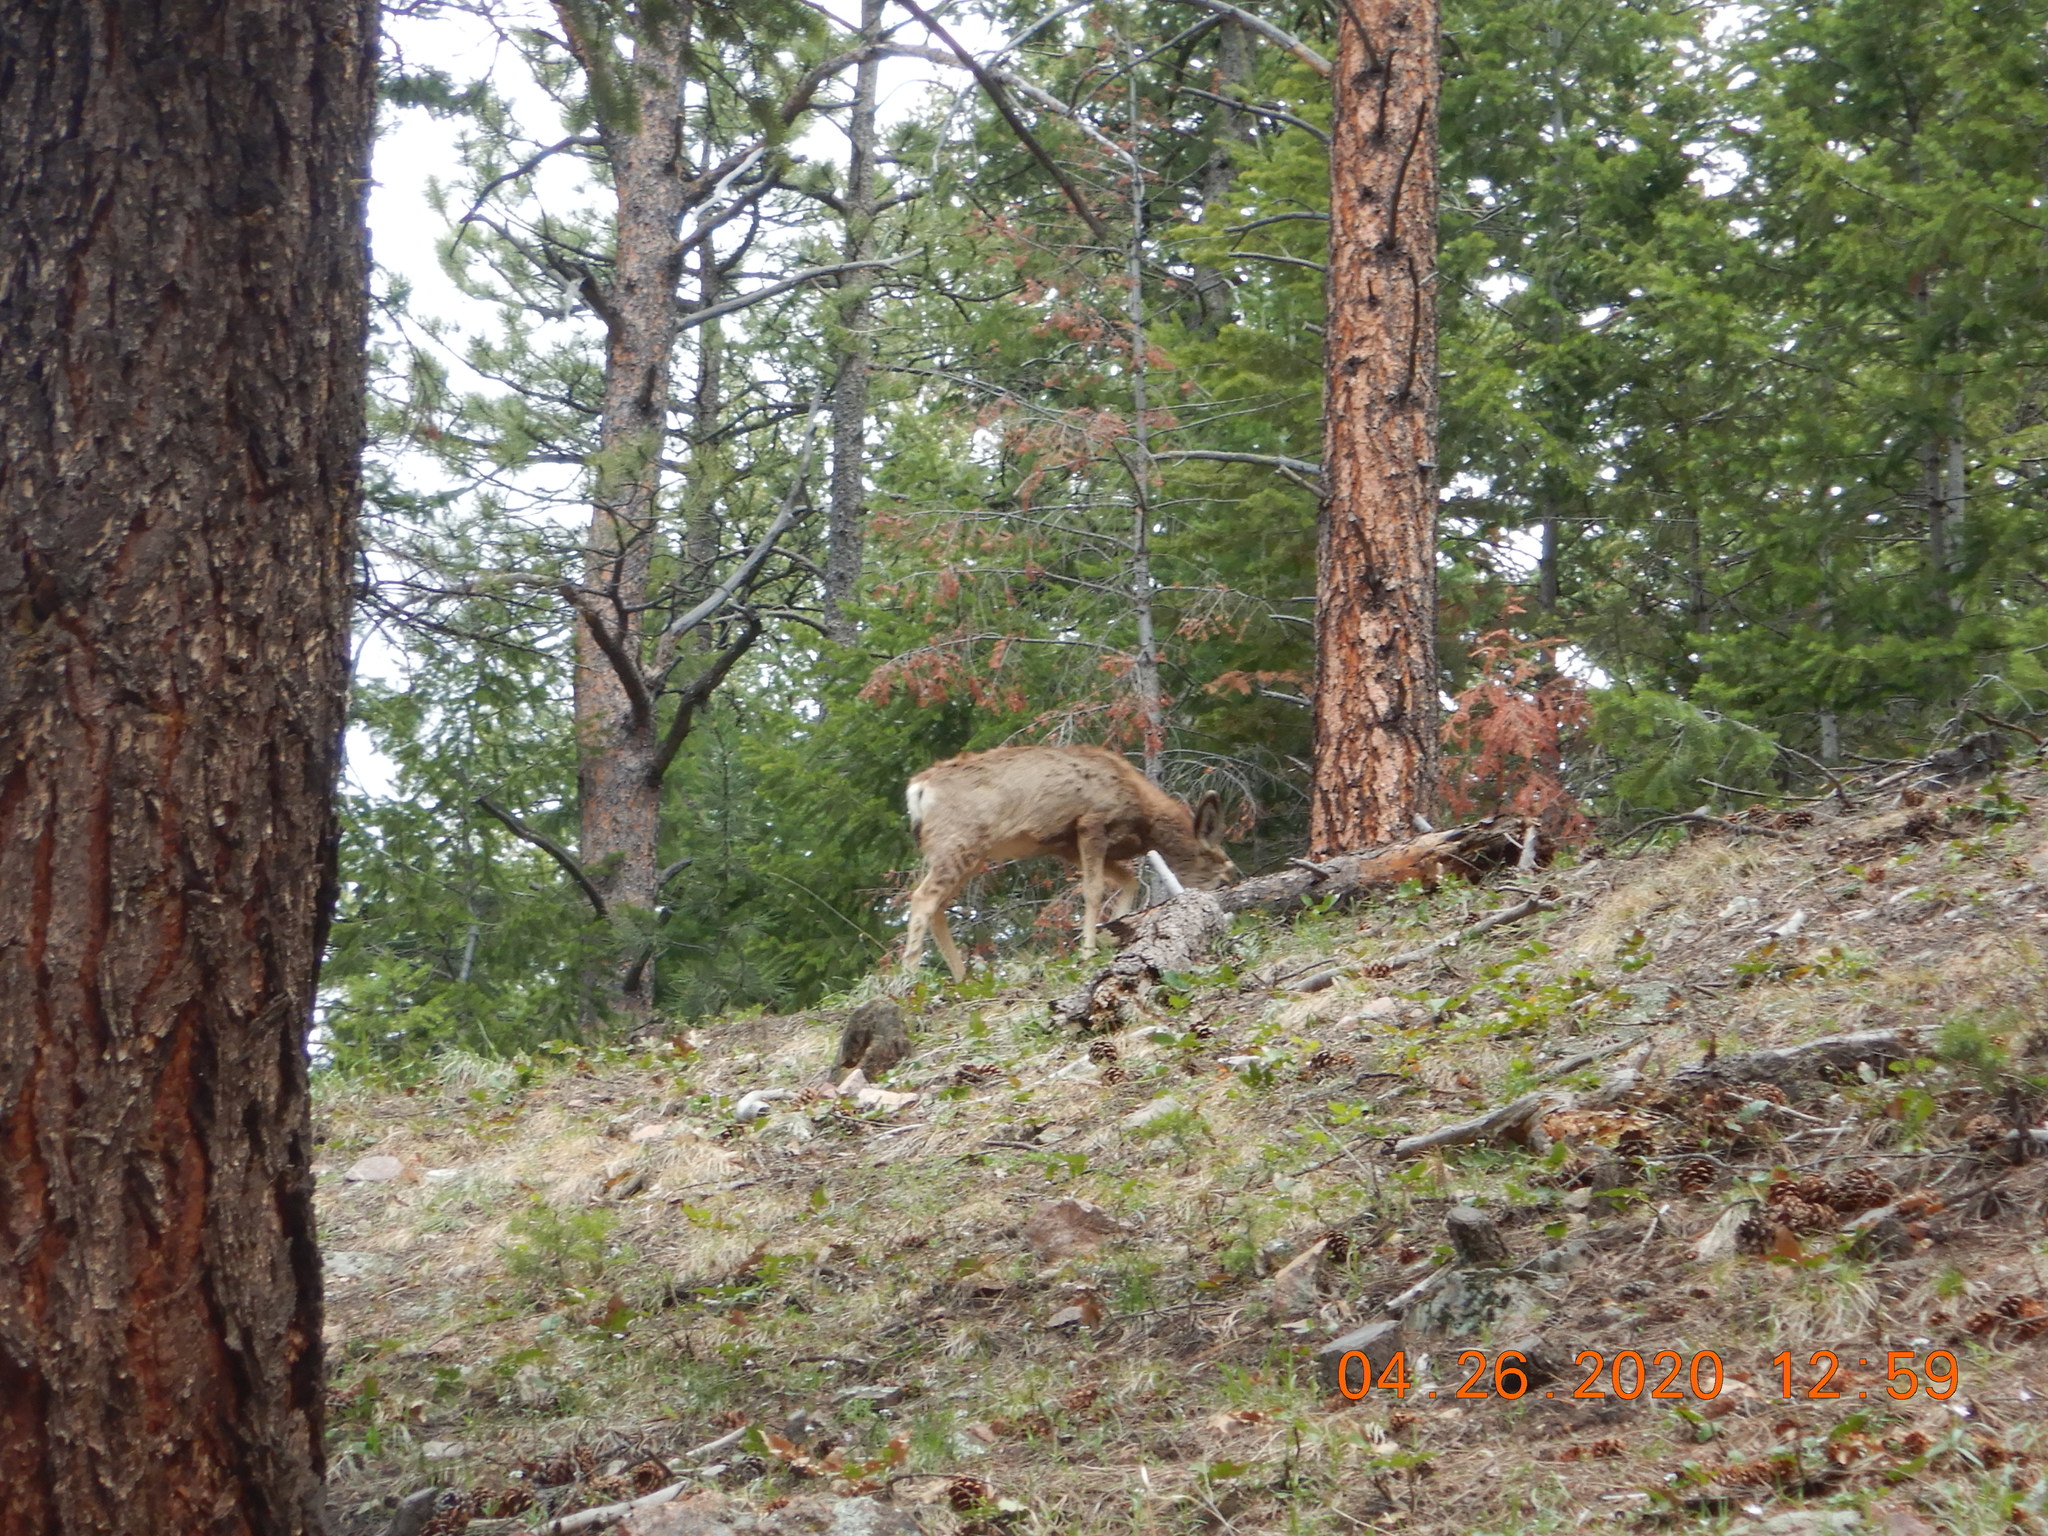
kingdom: Animalia
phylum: Chordata
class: Mammalia
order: Artiodactyla
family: Cervidae
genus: Odocoileus
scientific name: Odocoileus hemionus
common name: Mule deer
